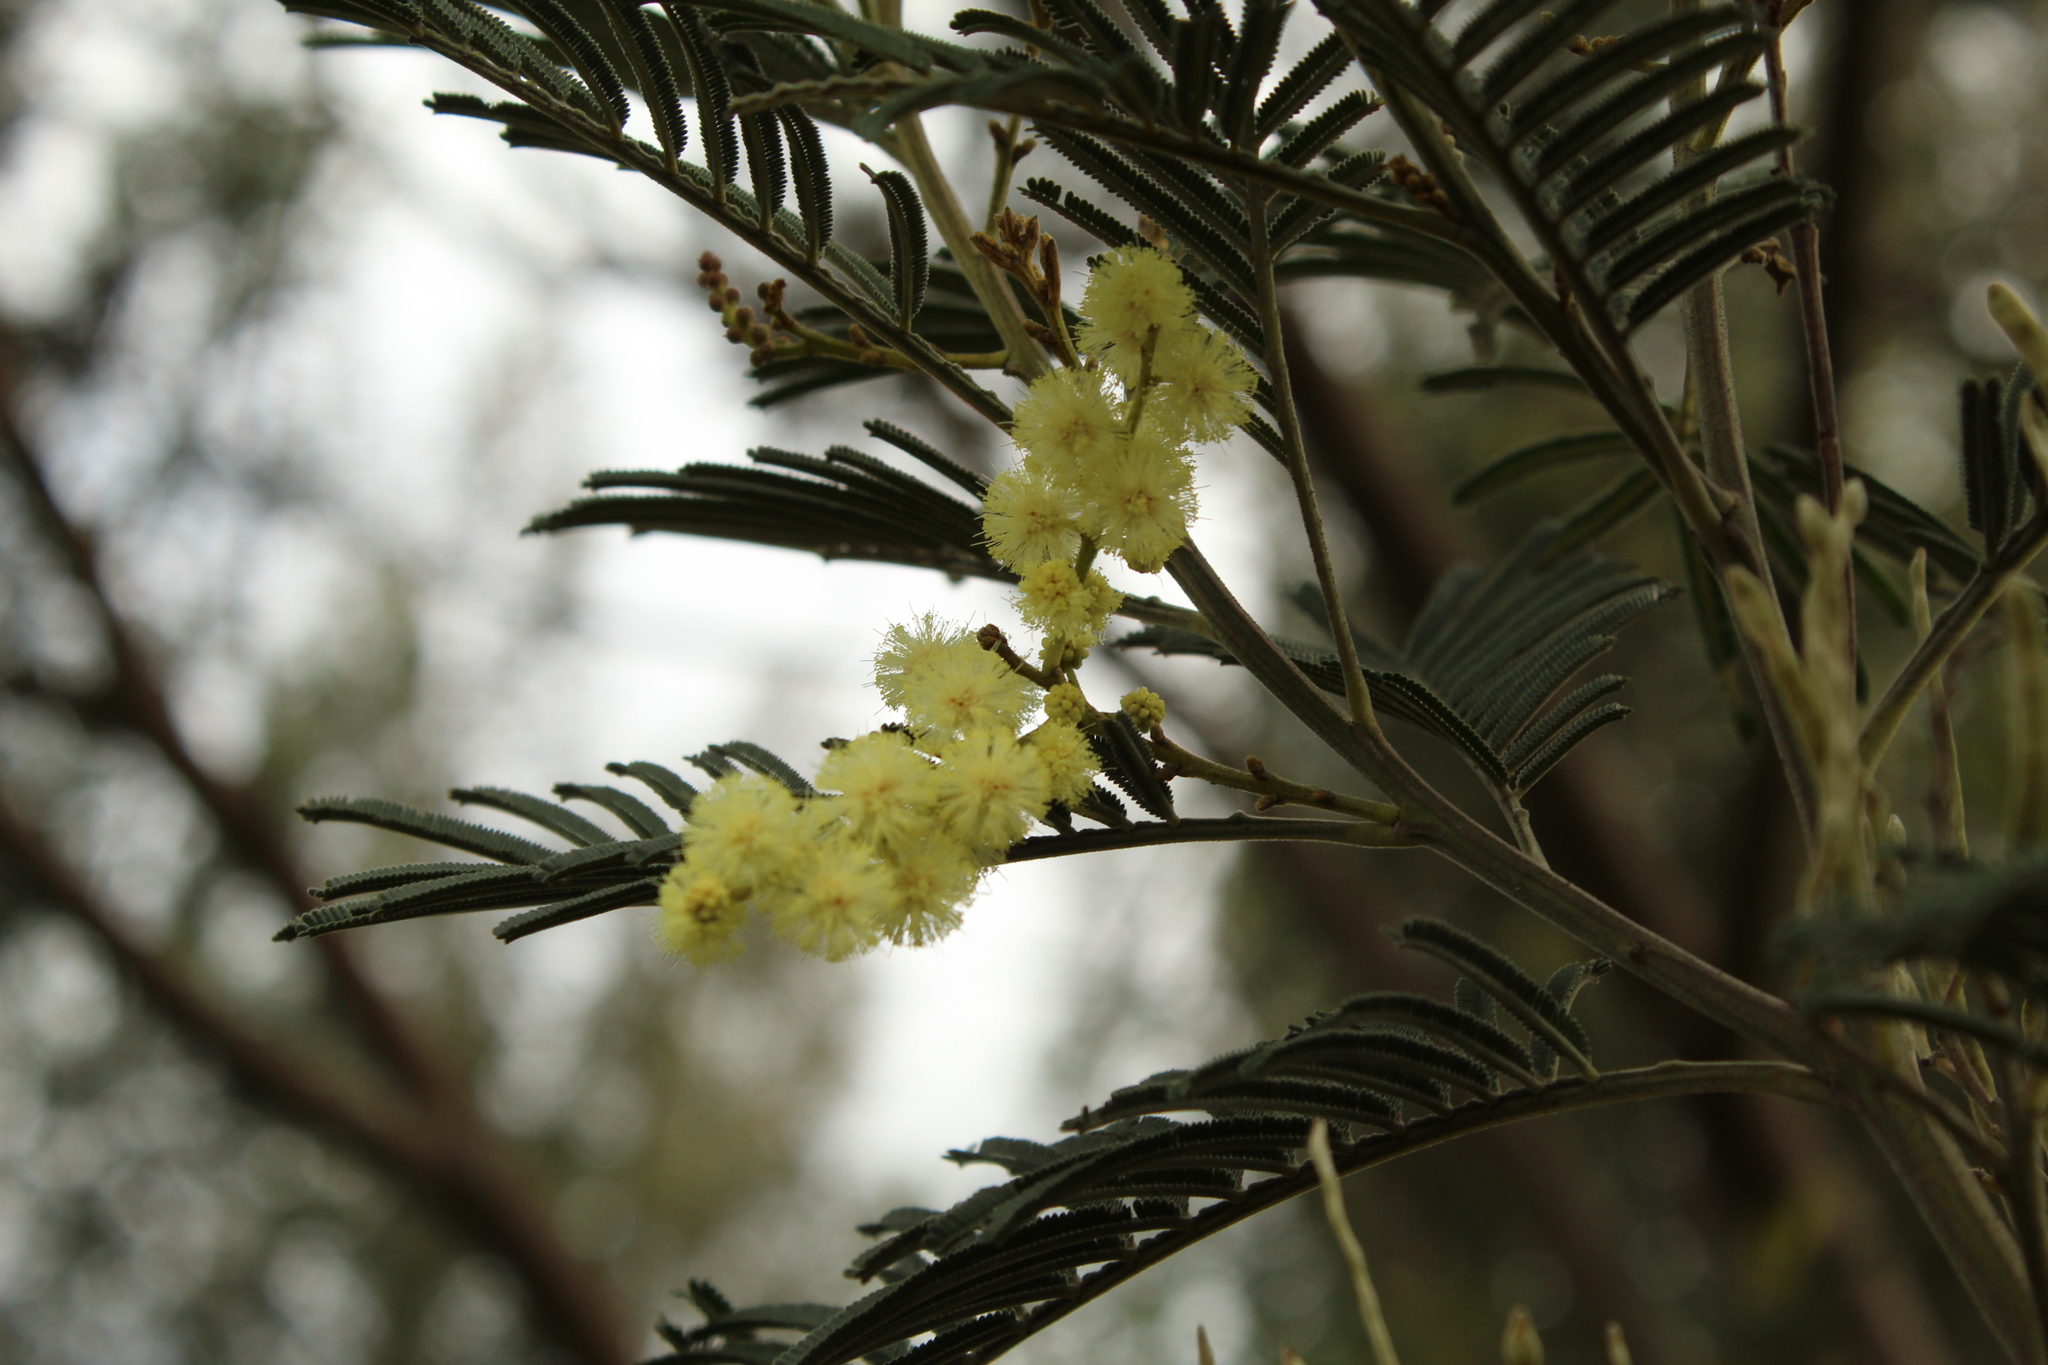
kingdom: Plantae
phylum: Tracheophyta
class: Magnoliopsida
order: Fabales
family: Fabaceae
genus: Acacia
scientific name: Acacia mearnsii
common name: Black wattle
